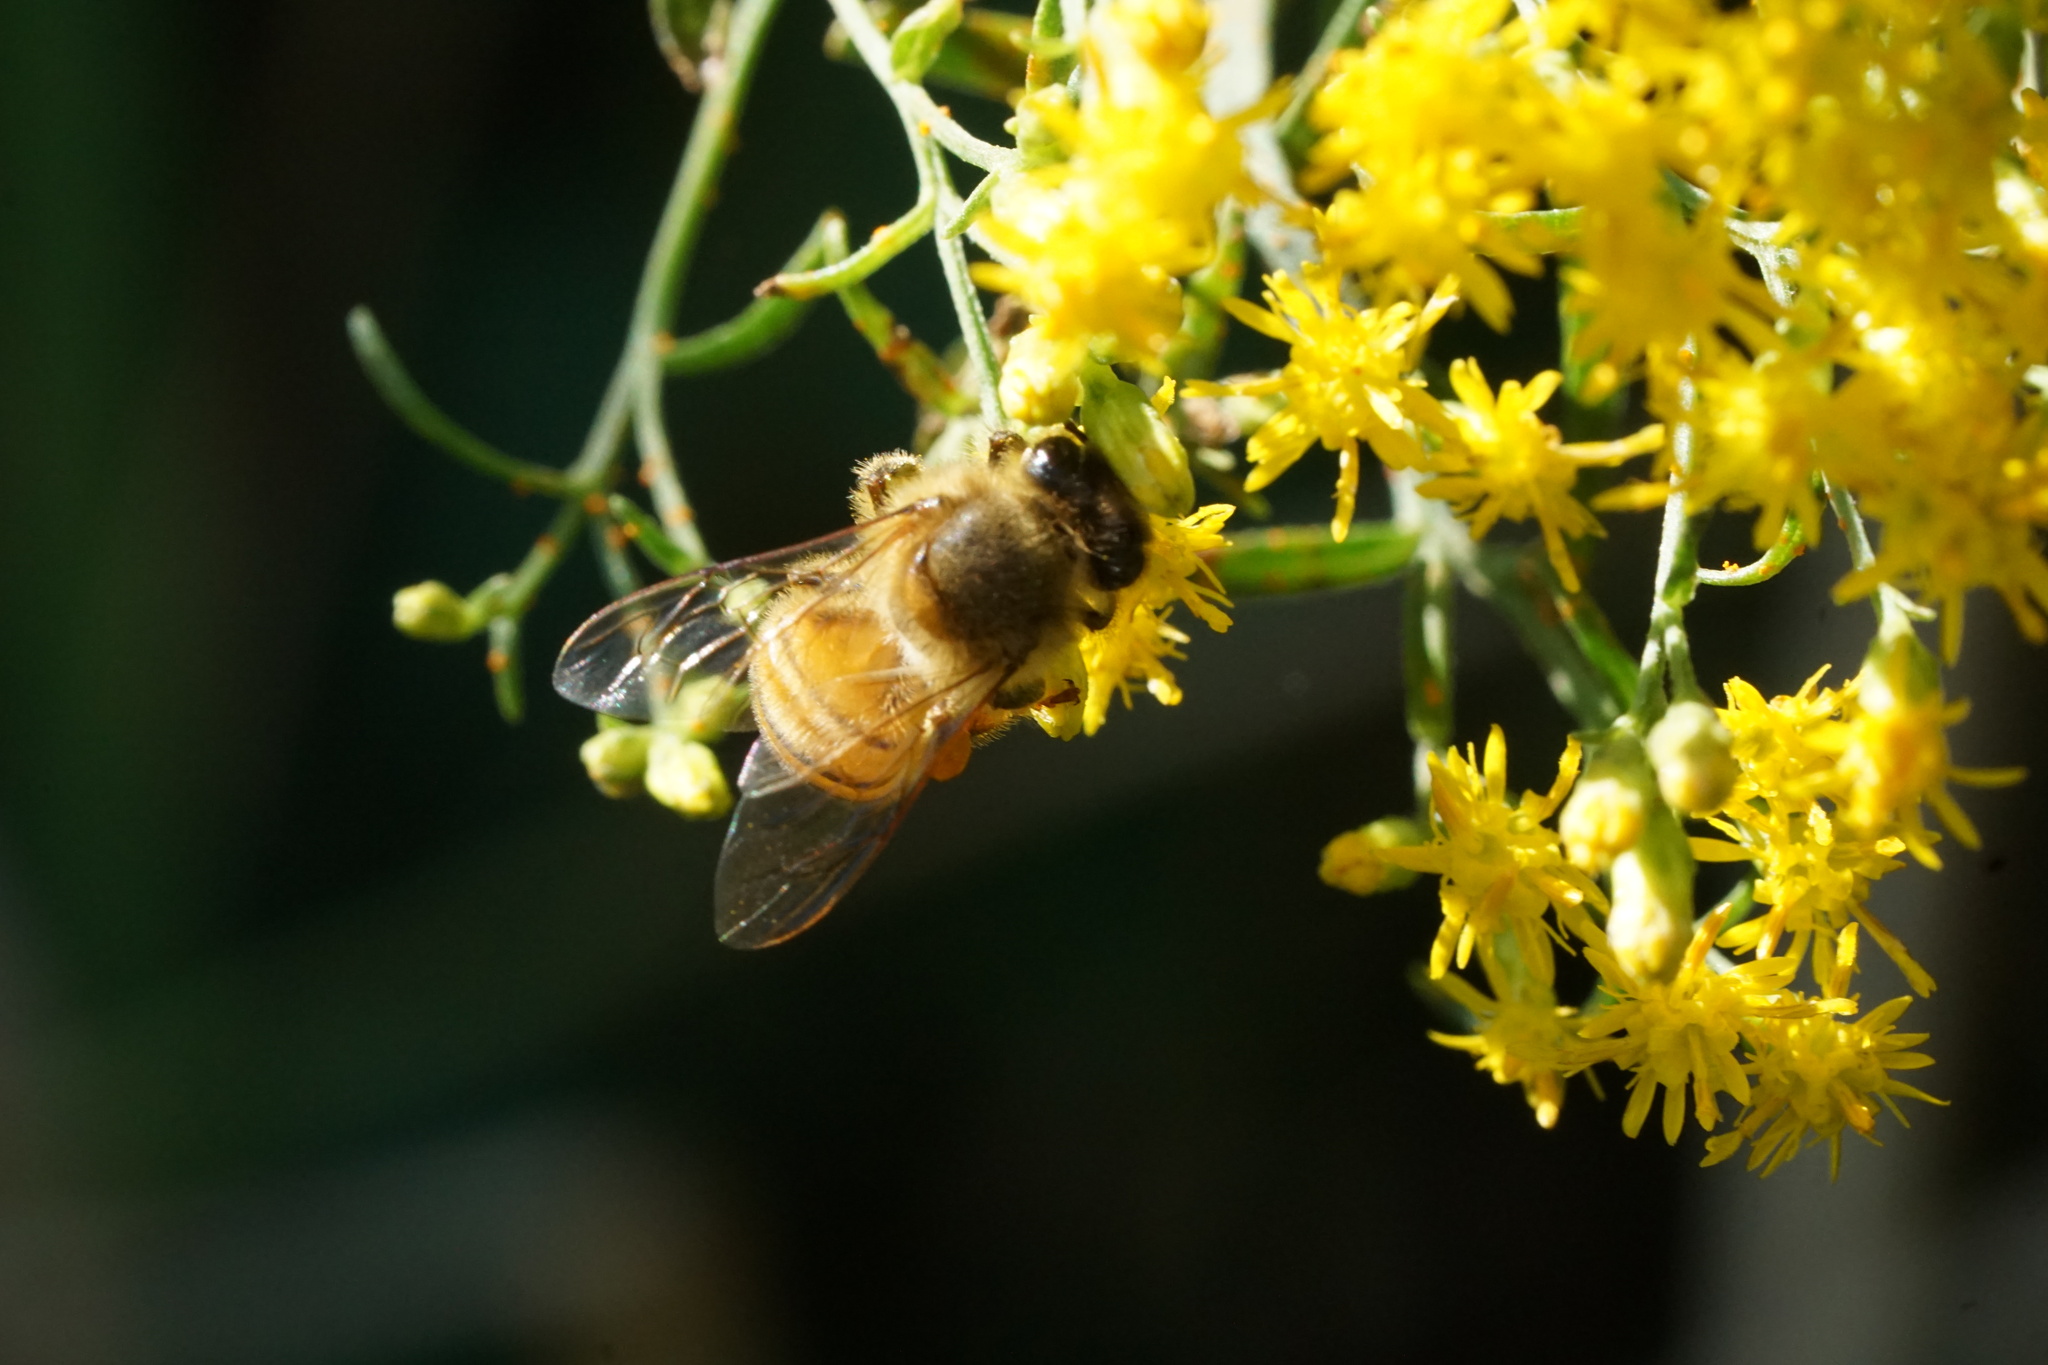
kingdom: Animalia
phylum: Arthropoda
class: Insecta
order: Hymenoptera
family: Apidae
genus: Apis
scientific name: Apis mellifera
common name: Honey bee
